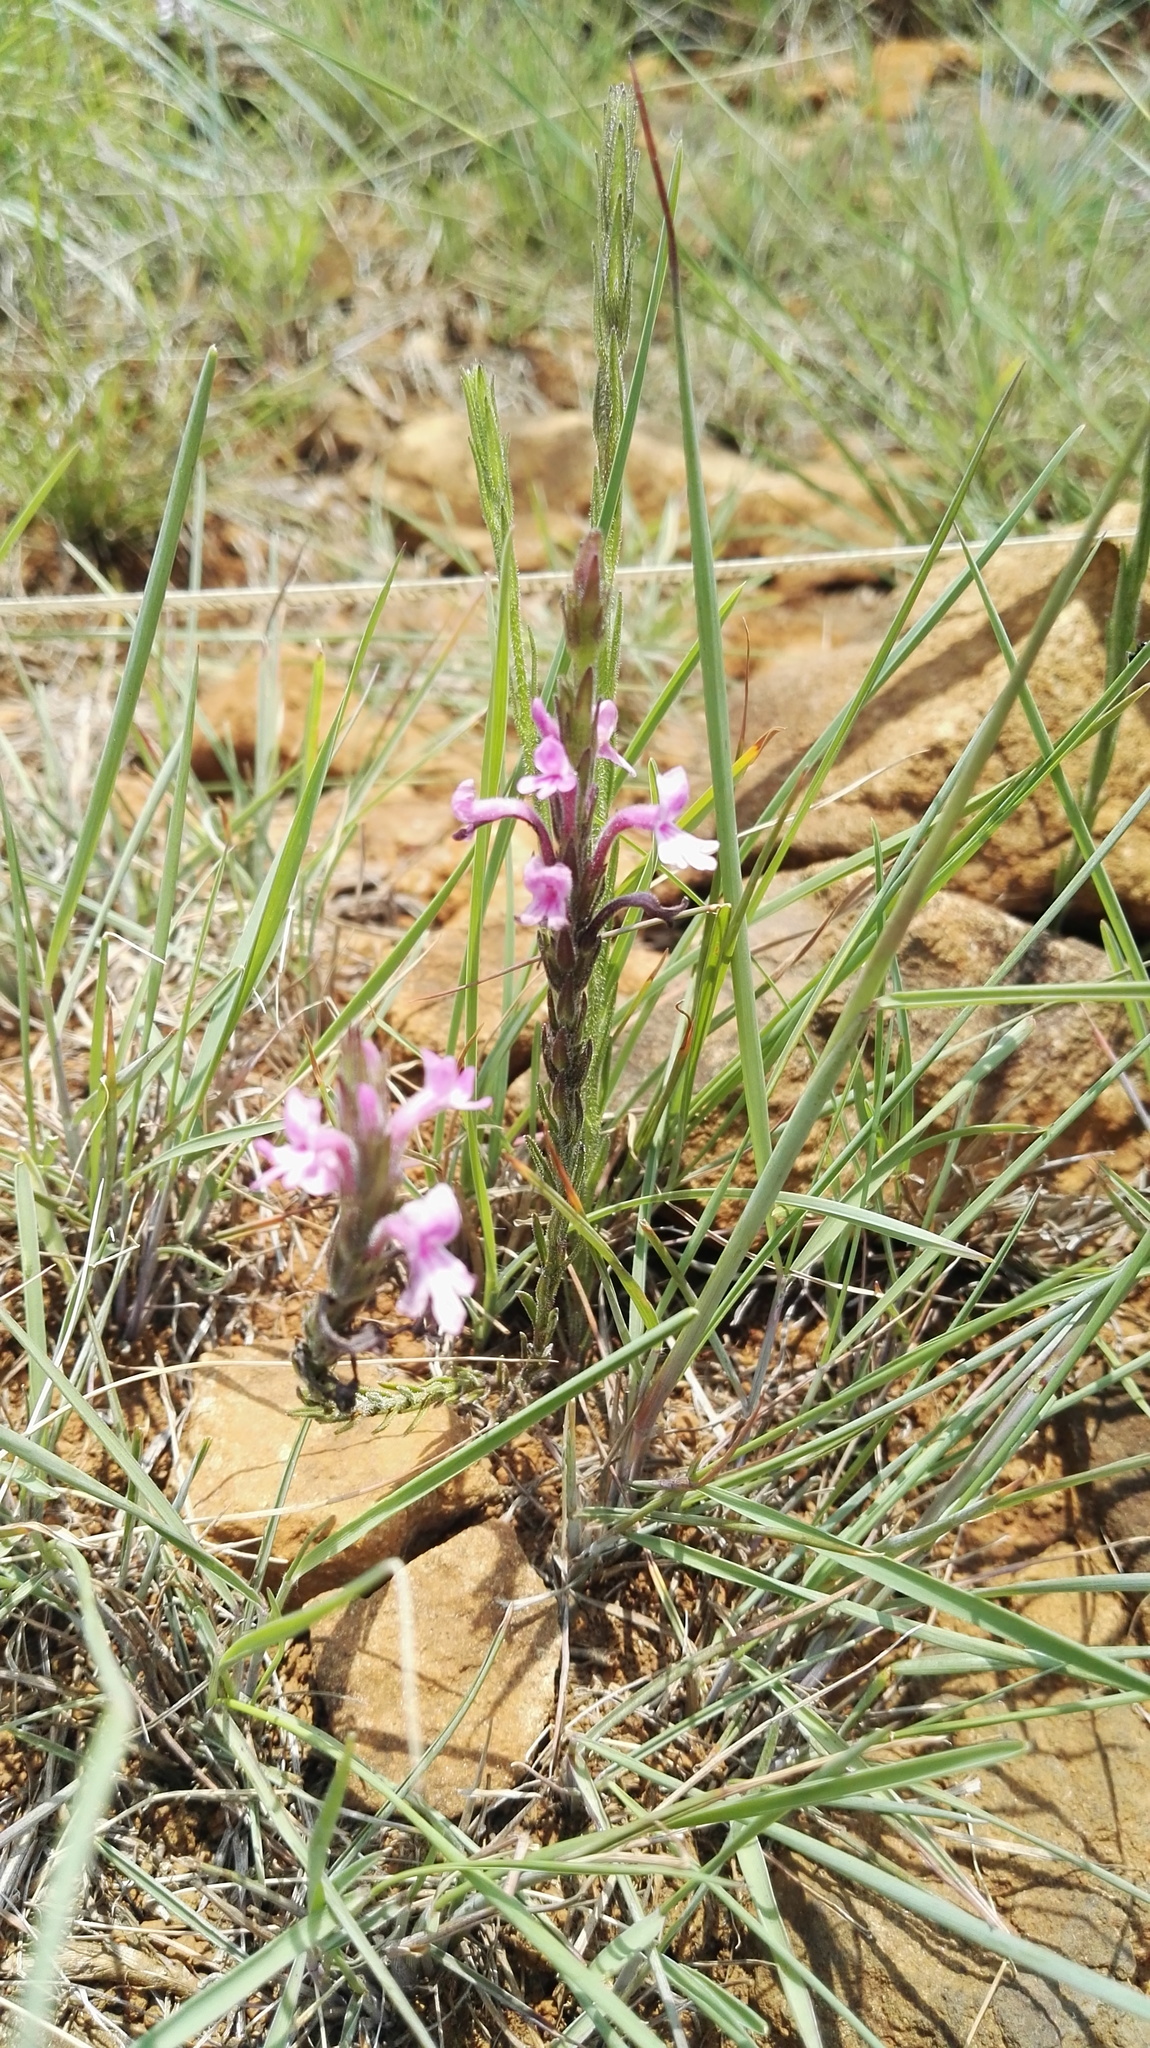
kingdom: Plantae
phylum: Tracheophyta
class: Magnoliopsida
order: Lamiales
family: Orobanchaceae
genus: Striga
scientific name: Striga bilabiata
